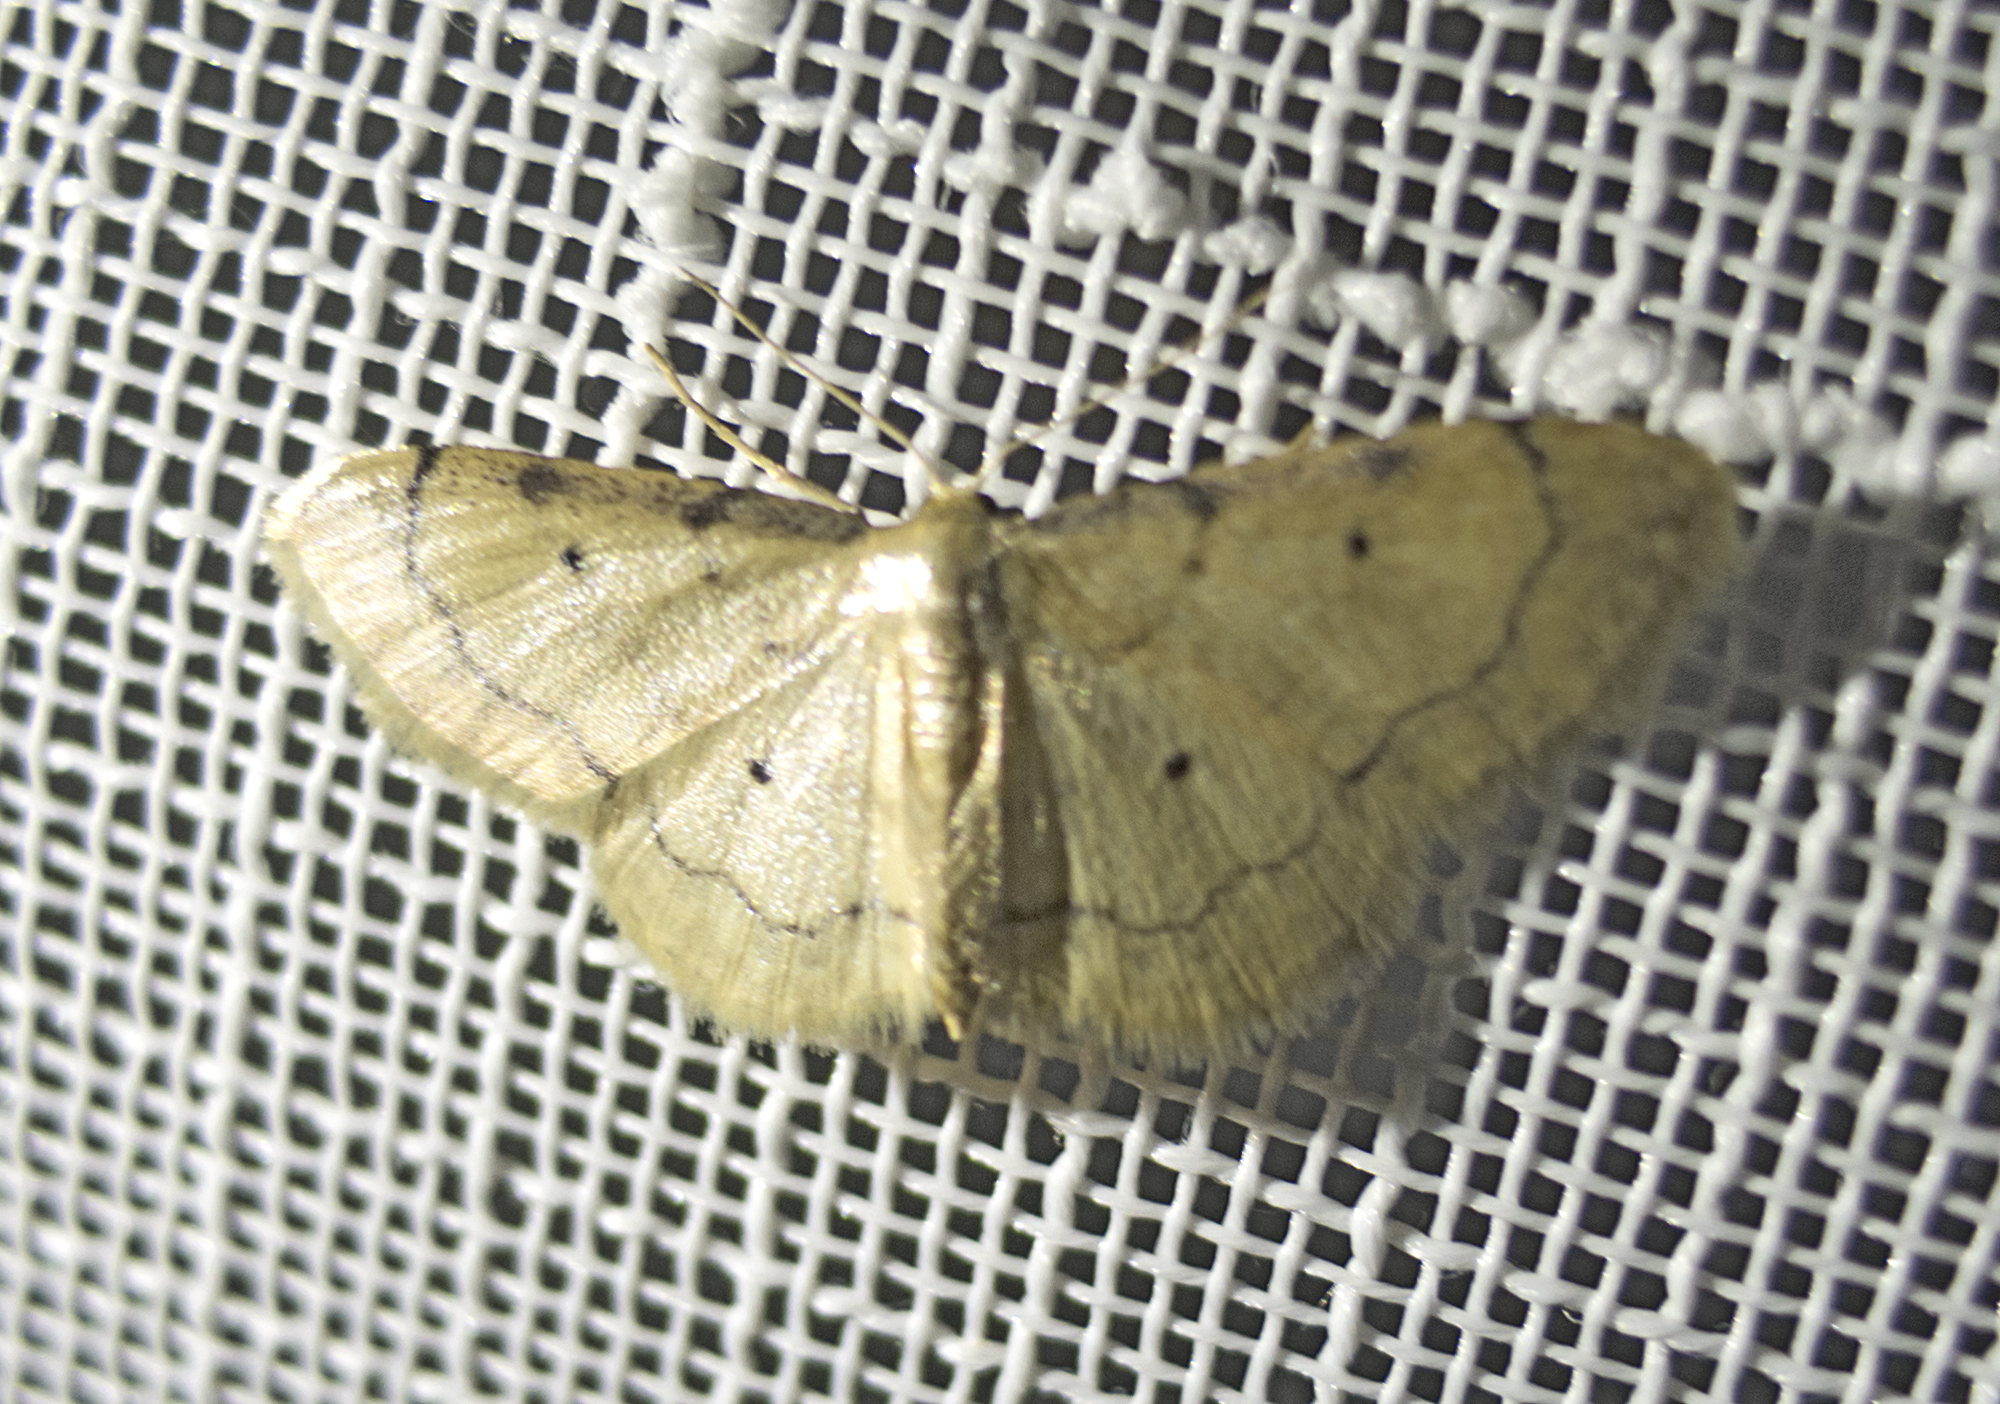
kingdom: Animalia
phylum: Arthropoda
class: Insecta
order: Lepidoptera
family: Geometridae
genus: Idaea
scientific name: Idaea politaria
